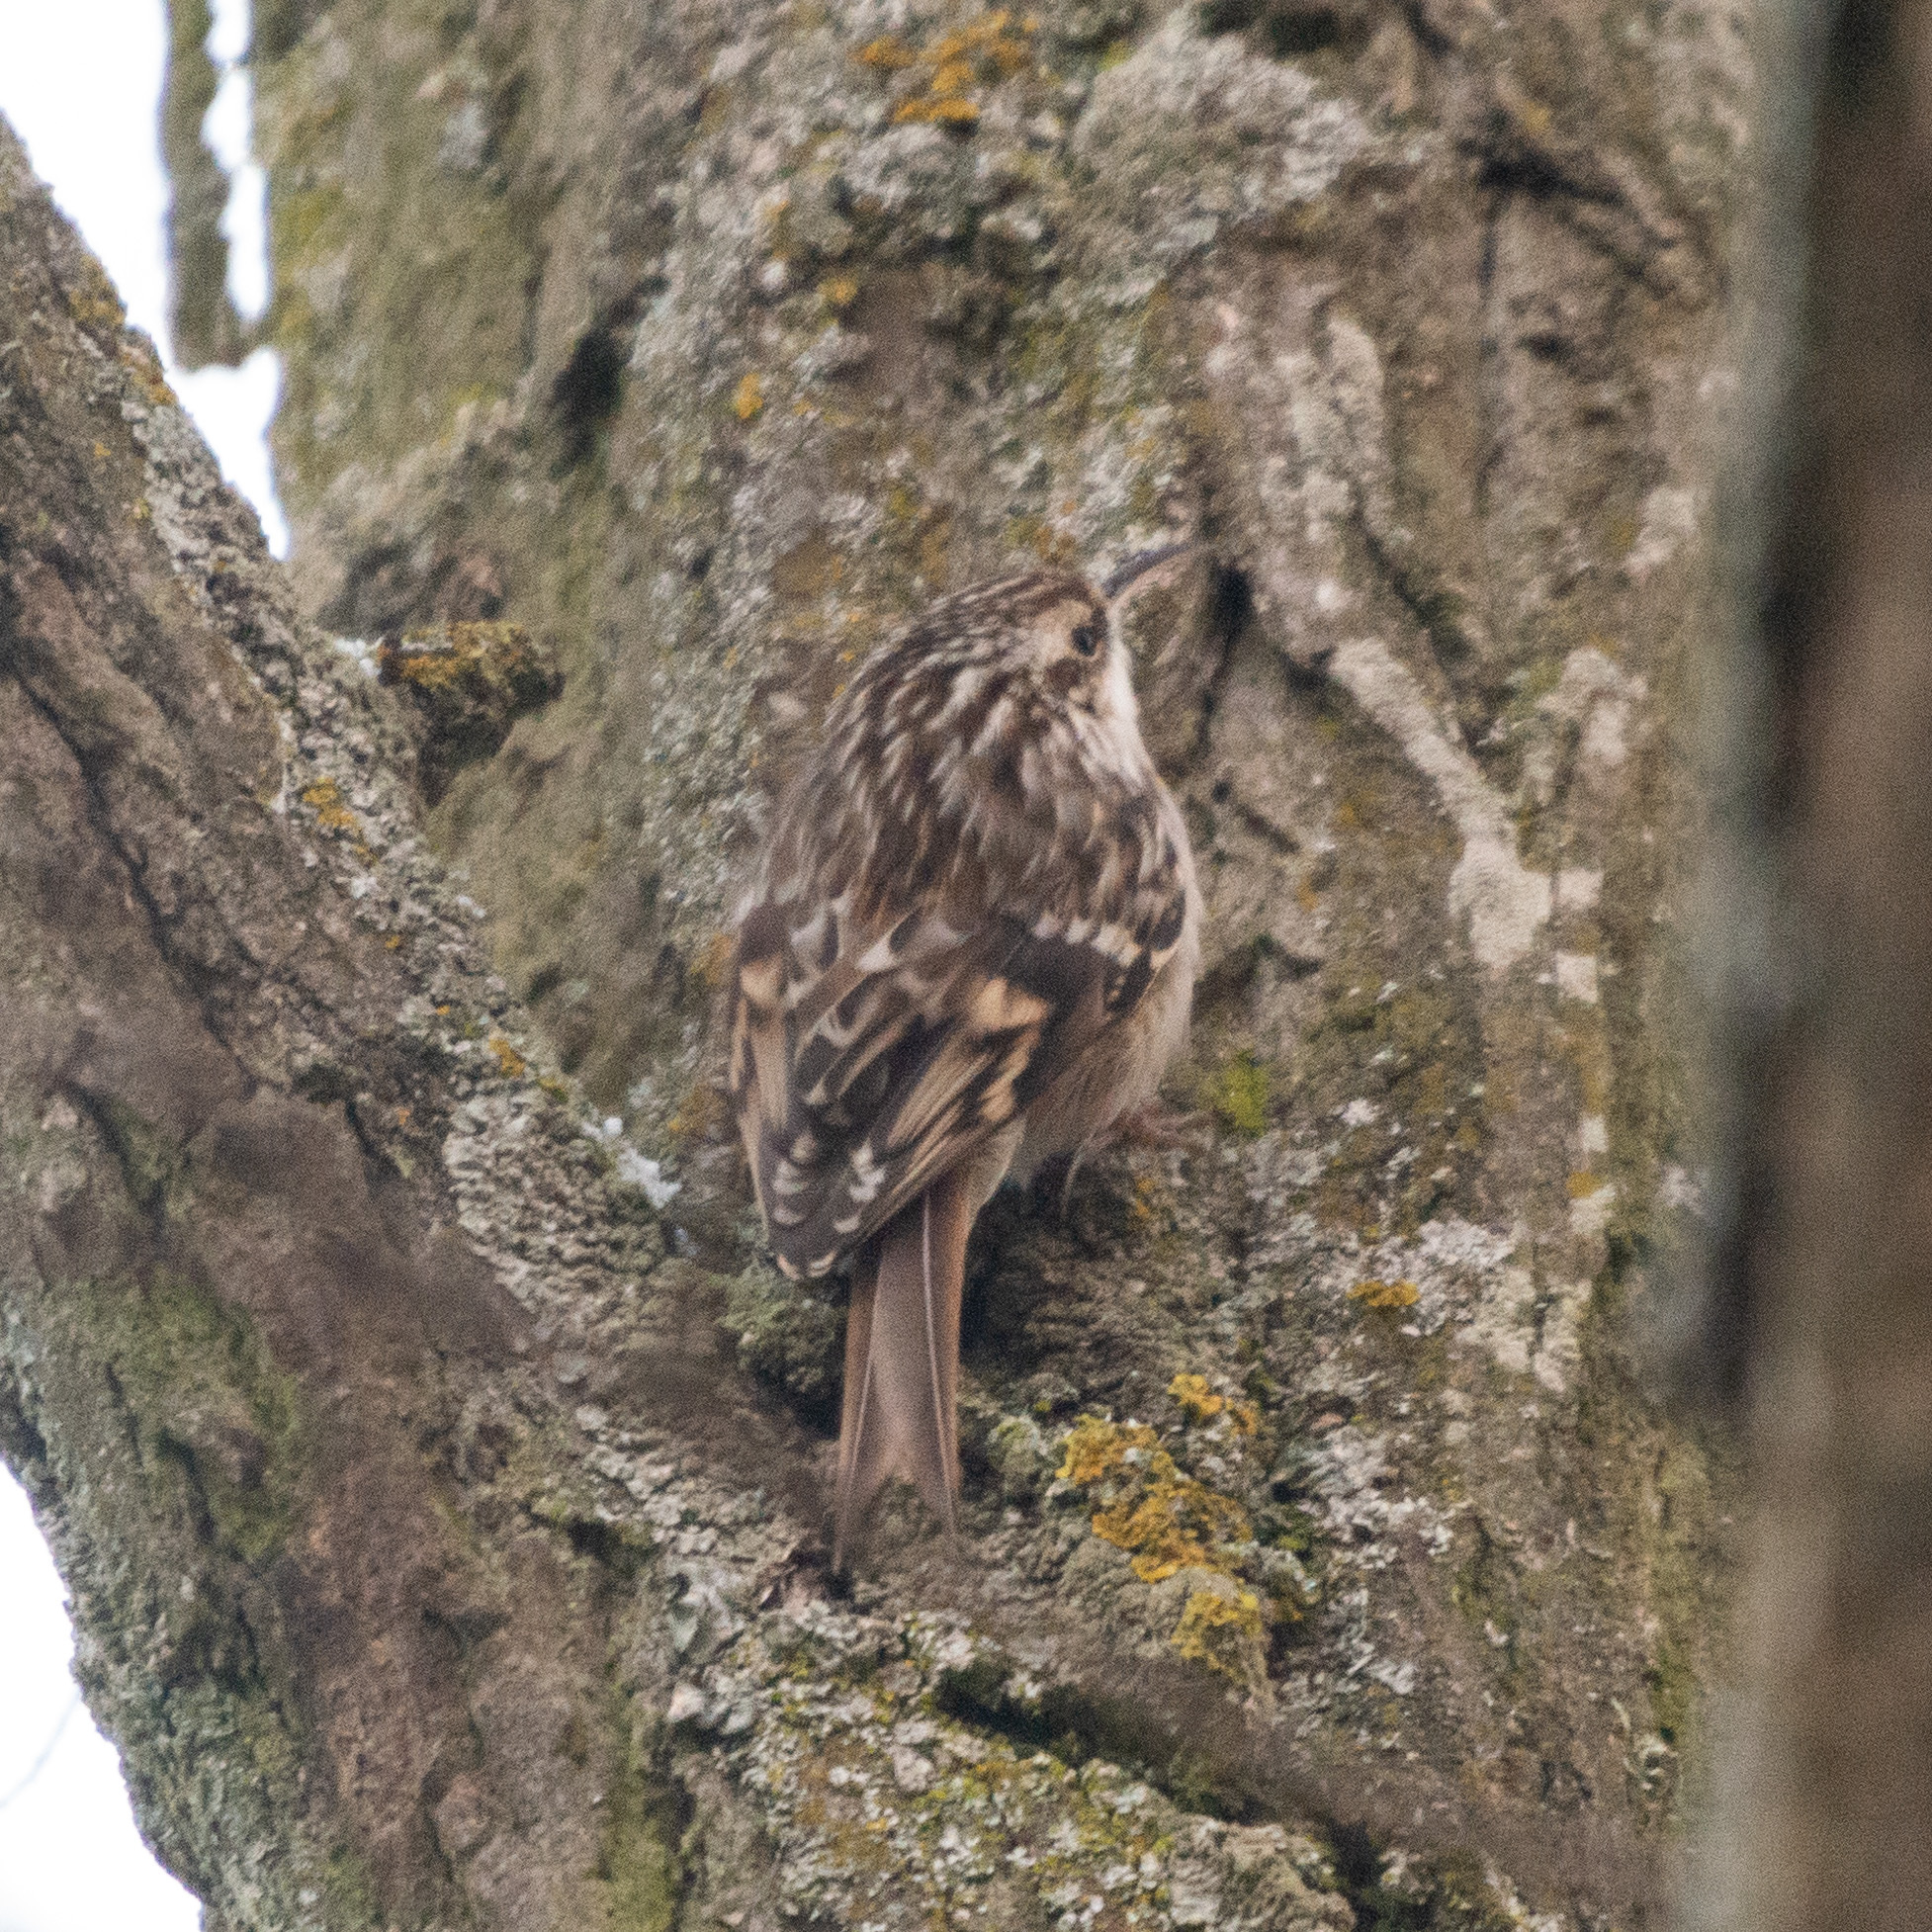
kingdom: Animalia
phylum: Chordata
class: Aves
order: Passeriformes
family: Certhiidae
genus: Certhia
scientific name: Certhia brachydactyla
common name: Short-toed treecreeper
